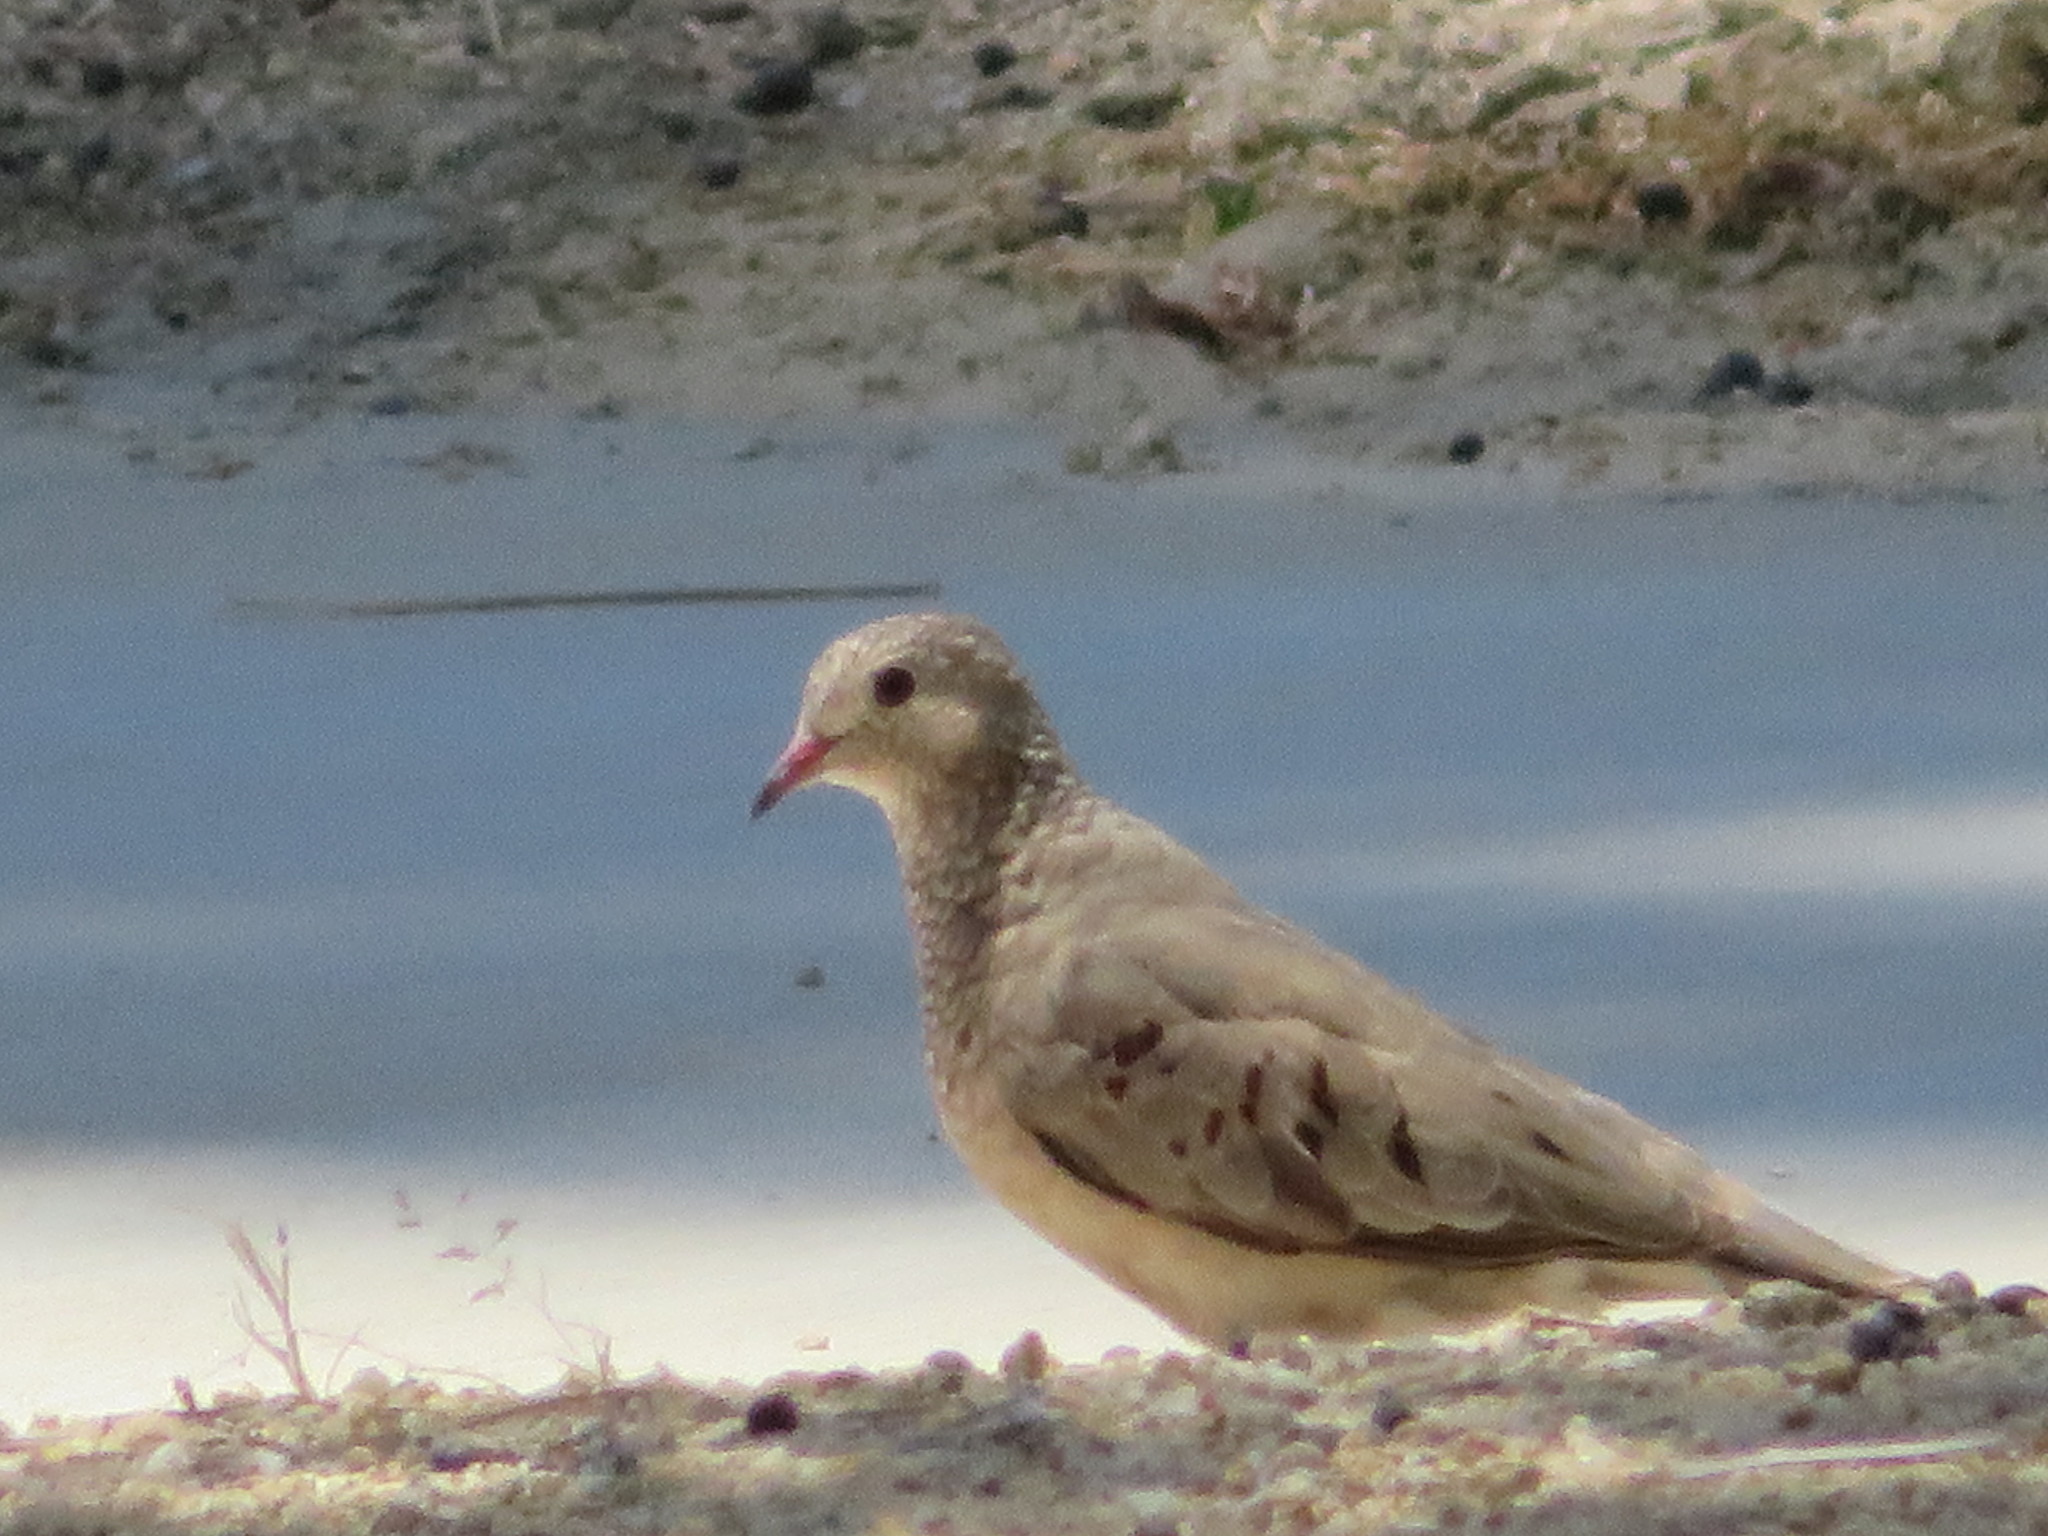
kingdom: Animalia
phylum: Chordata
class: Aves
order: Columbiformes
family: Columbidae
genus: Columbina
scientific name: Columbina passerina
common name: Common ground-dove
